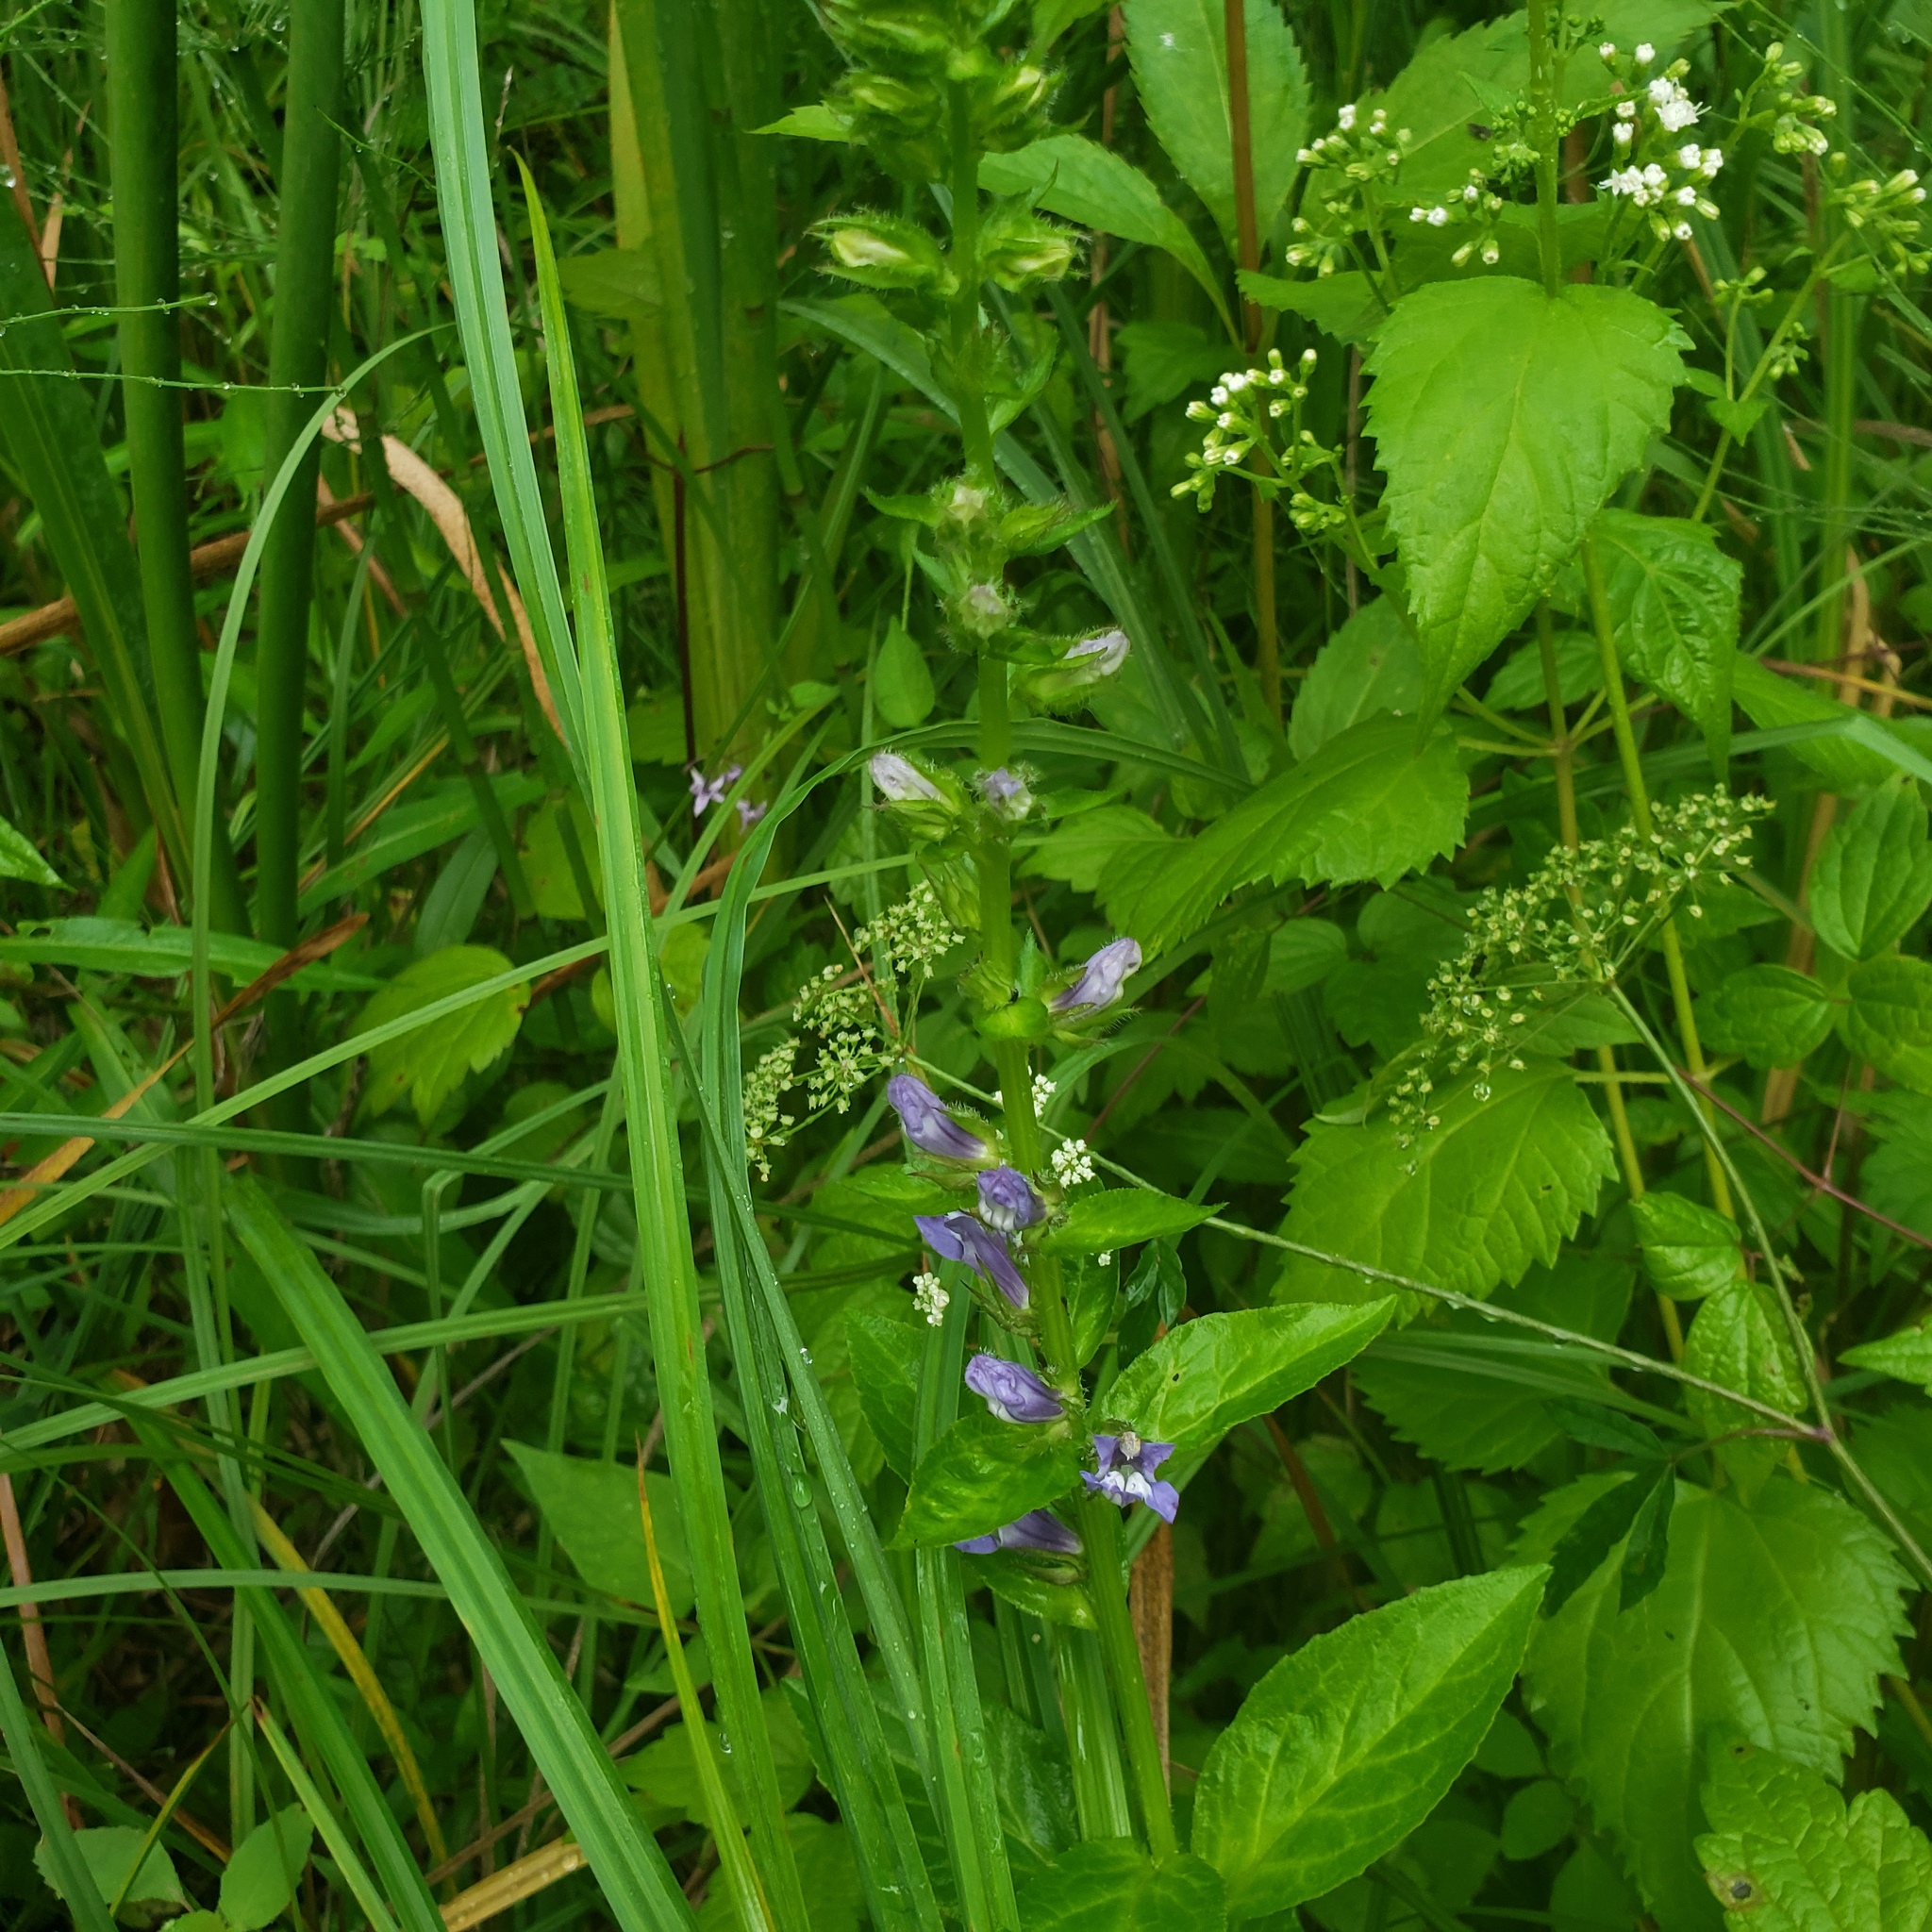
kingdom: Plantae
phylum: Tracheophyta
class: Magnoliopsida
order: Asterales
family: Campanulaceae
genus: Lobelia
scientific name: Lobelia siphilitica
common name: Great lobelia
